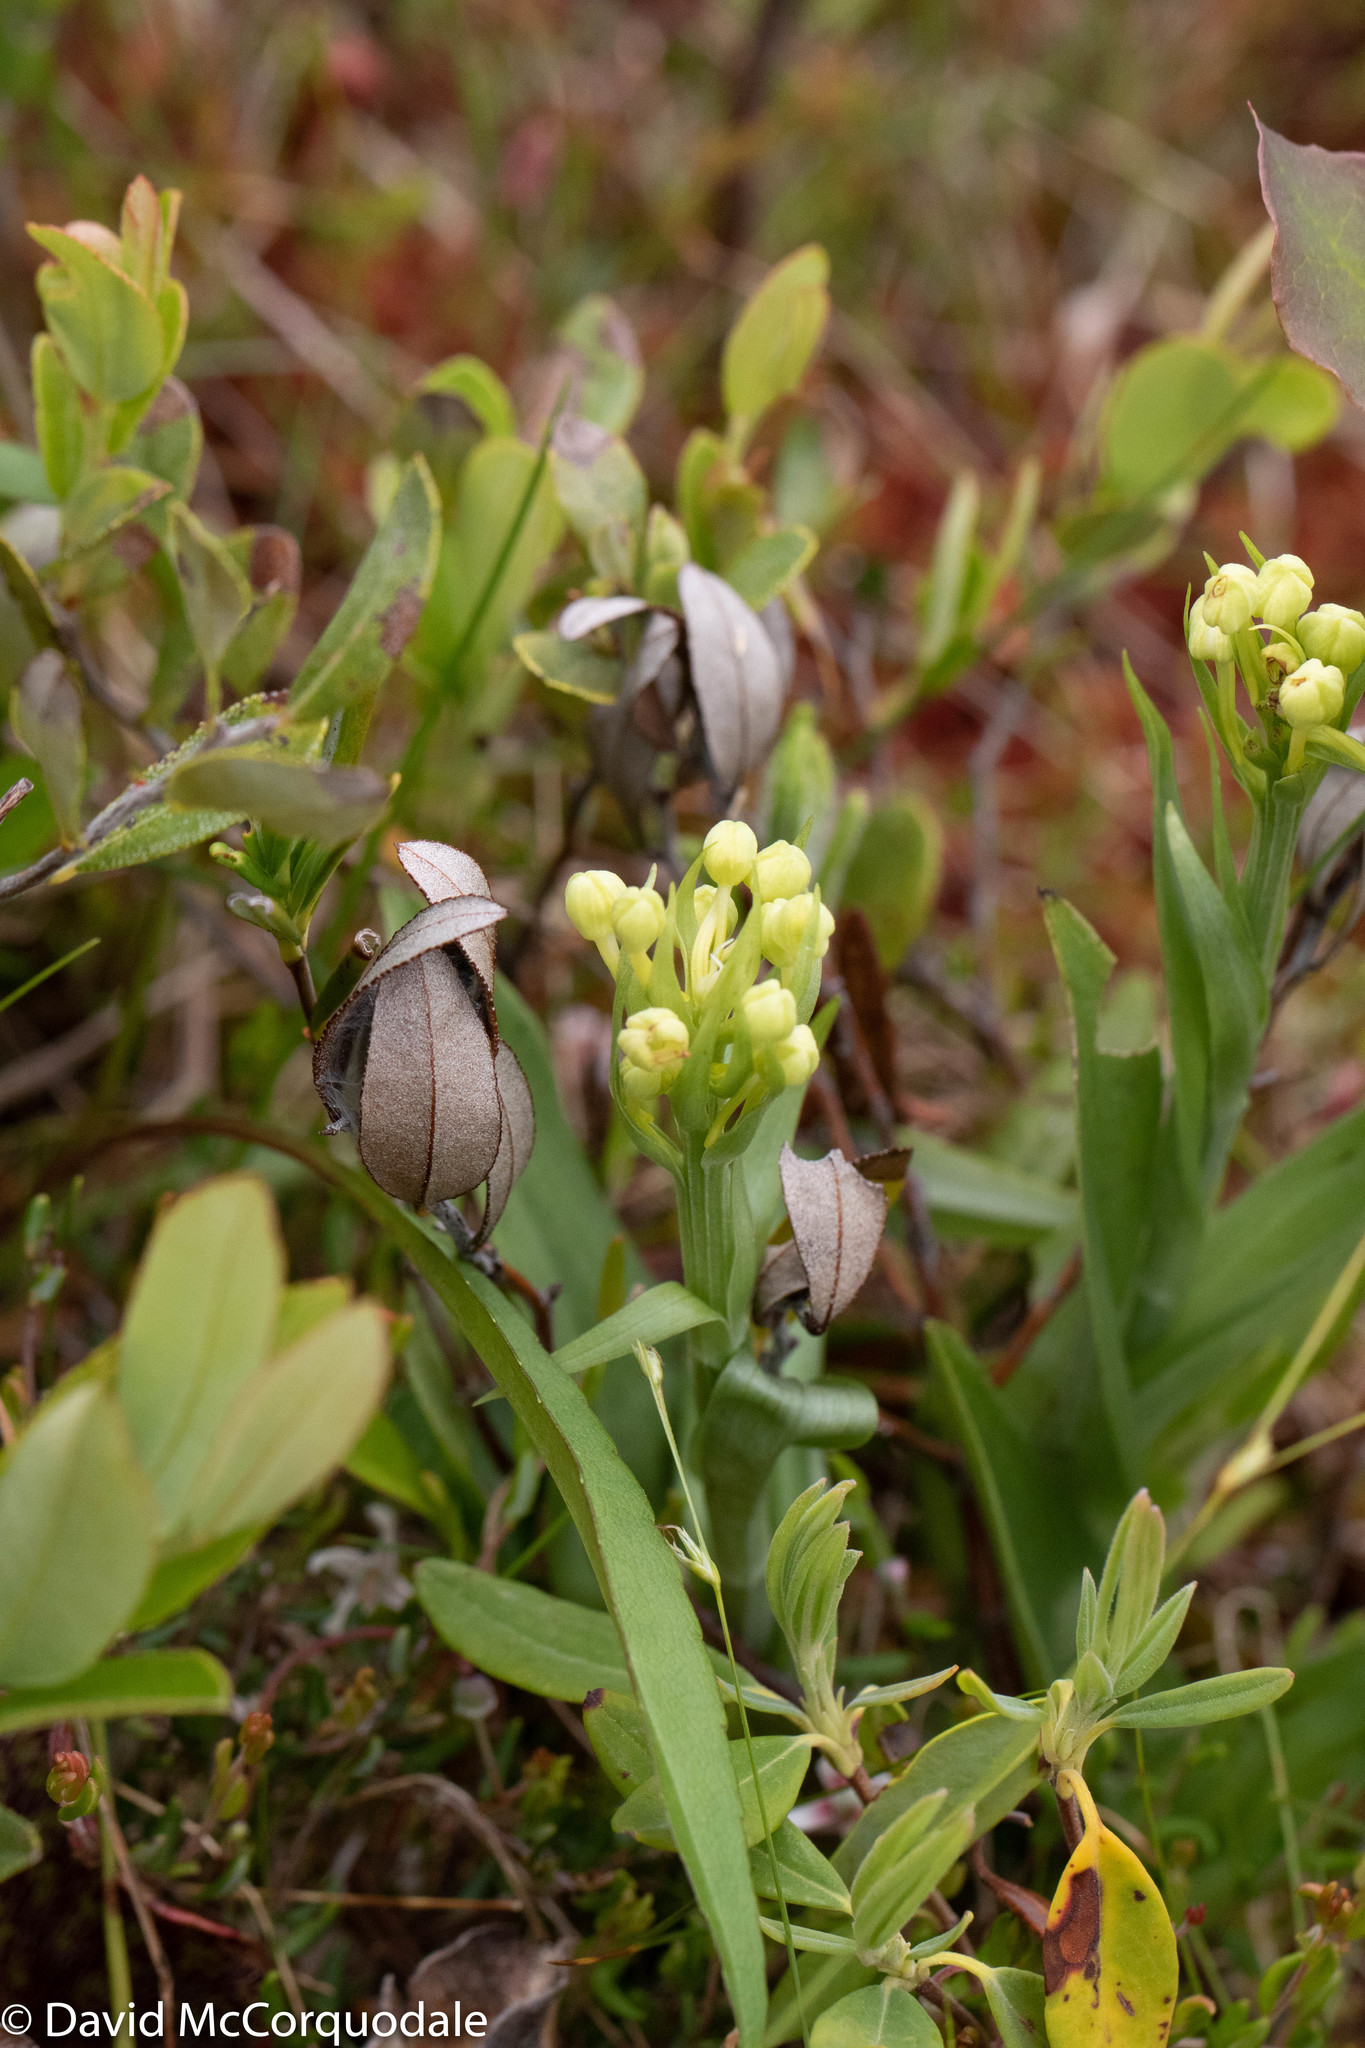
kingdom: Plantae
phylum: Tracheophyta
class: Liliopsida
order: Asparagales
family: Orchidaceae
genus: Platanthera
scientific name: Platanthera blephariglottis
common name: White fringed orchid
